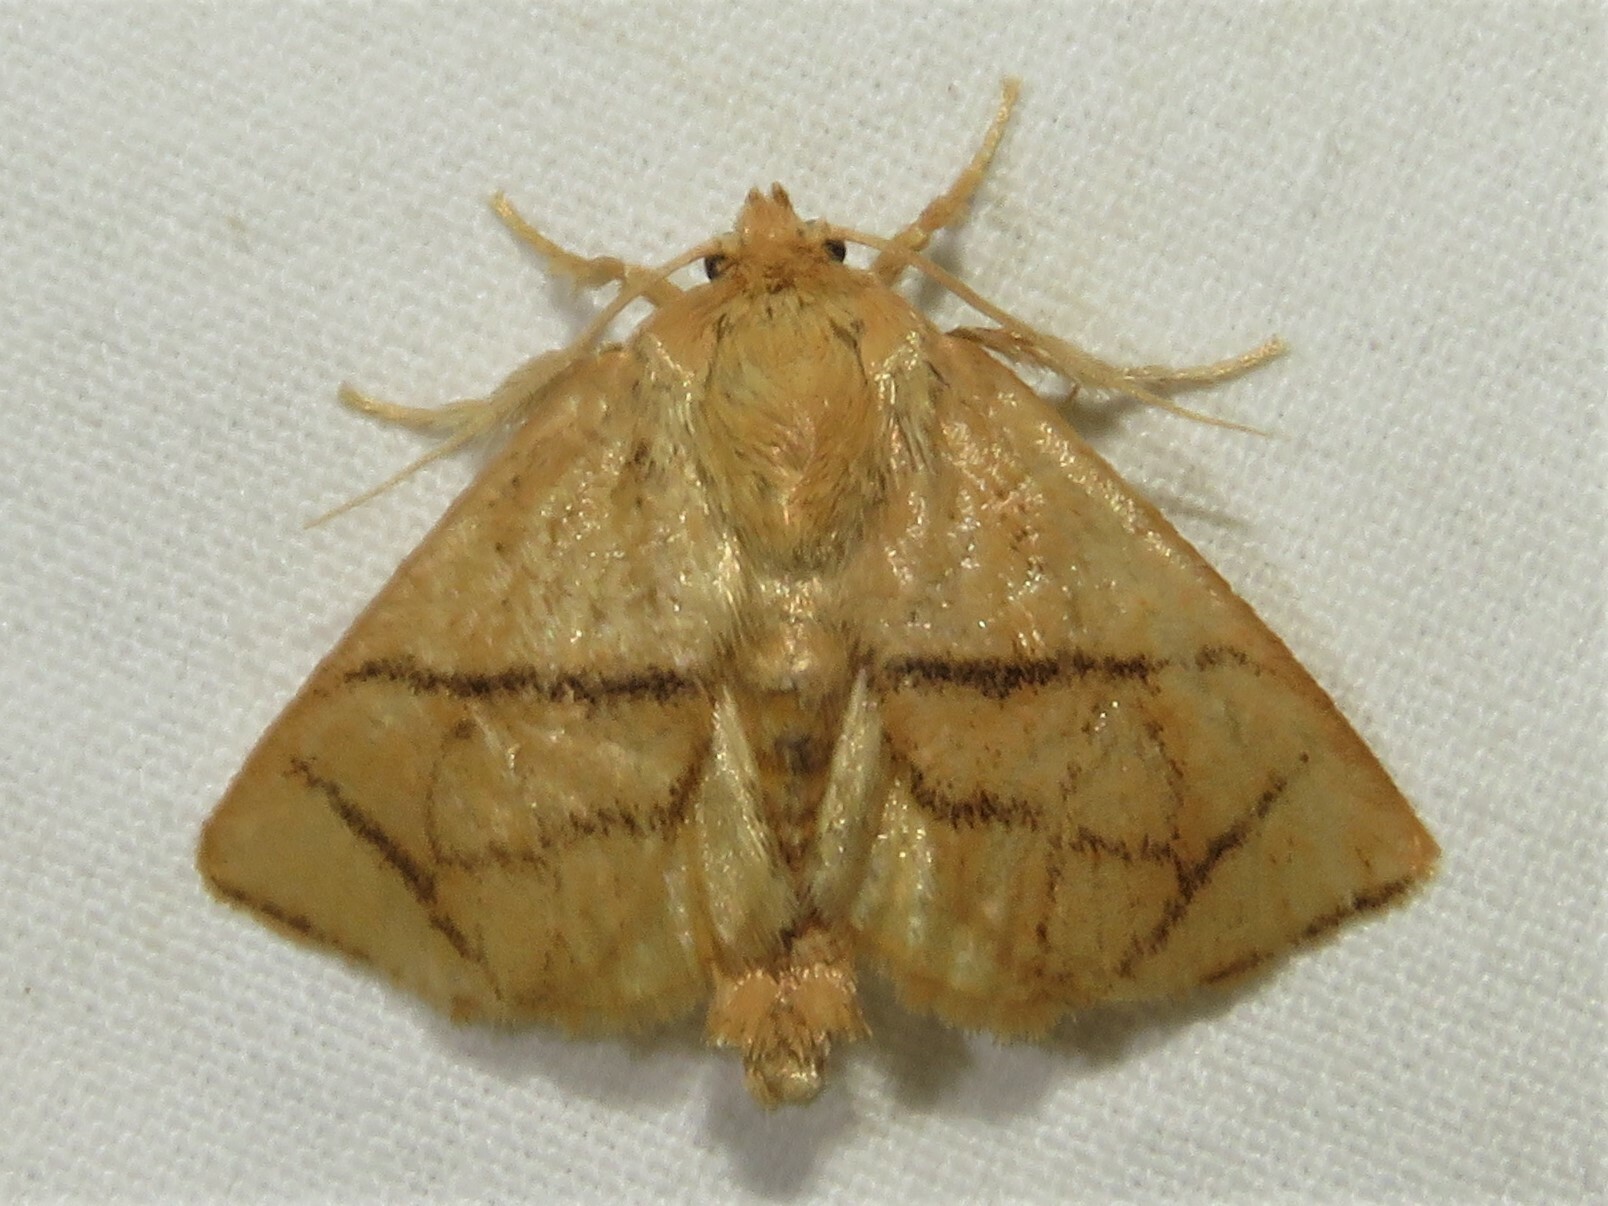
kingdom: Animalia
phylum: Arthropoda
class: Insecta
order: Lepidoptera
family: Limacodidae
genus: Apoda
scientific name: Apoda y-inversa
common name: Yellow-collared slug moth
